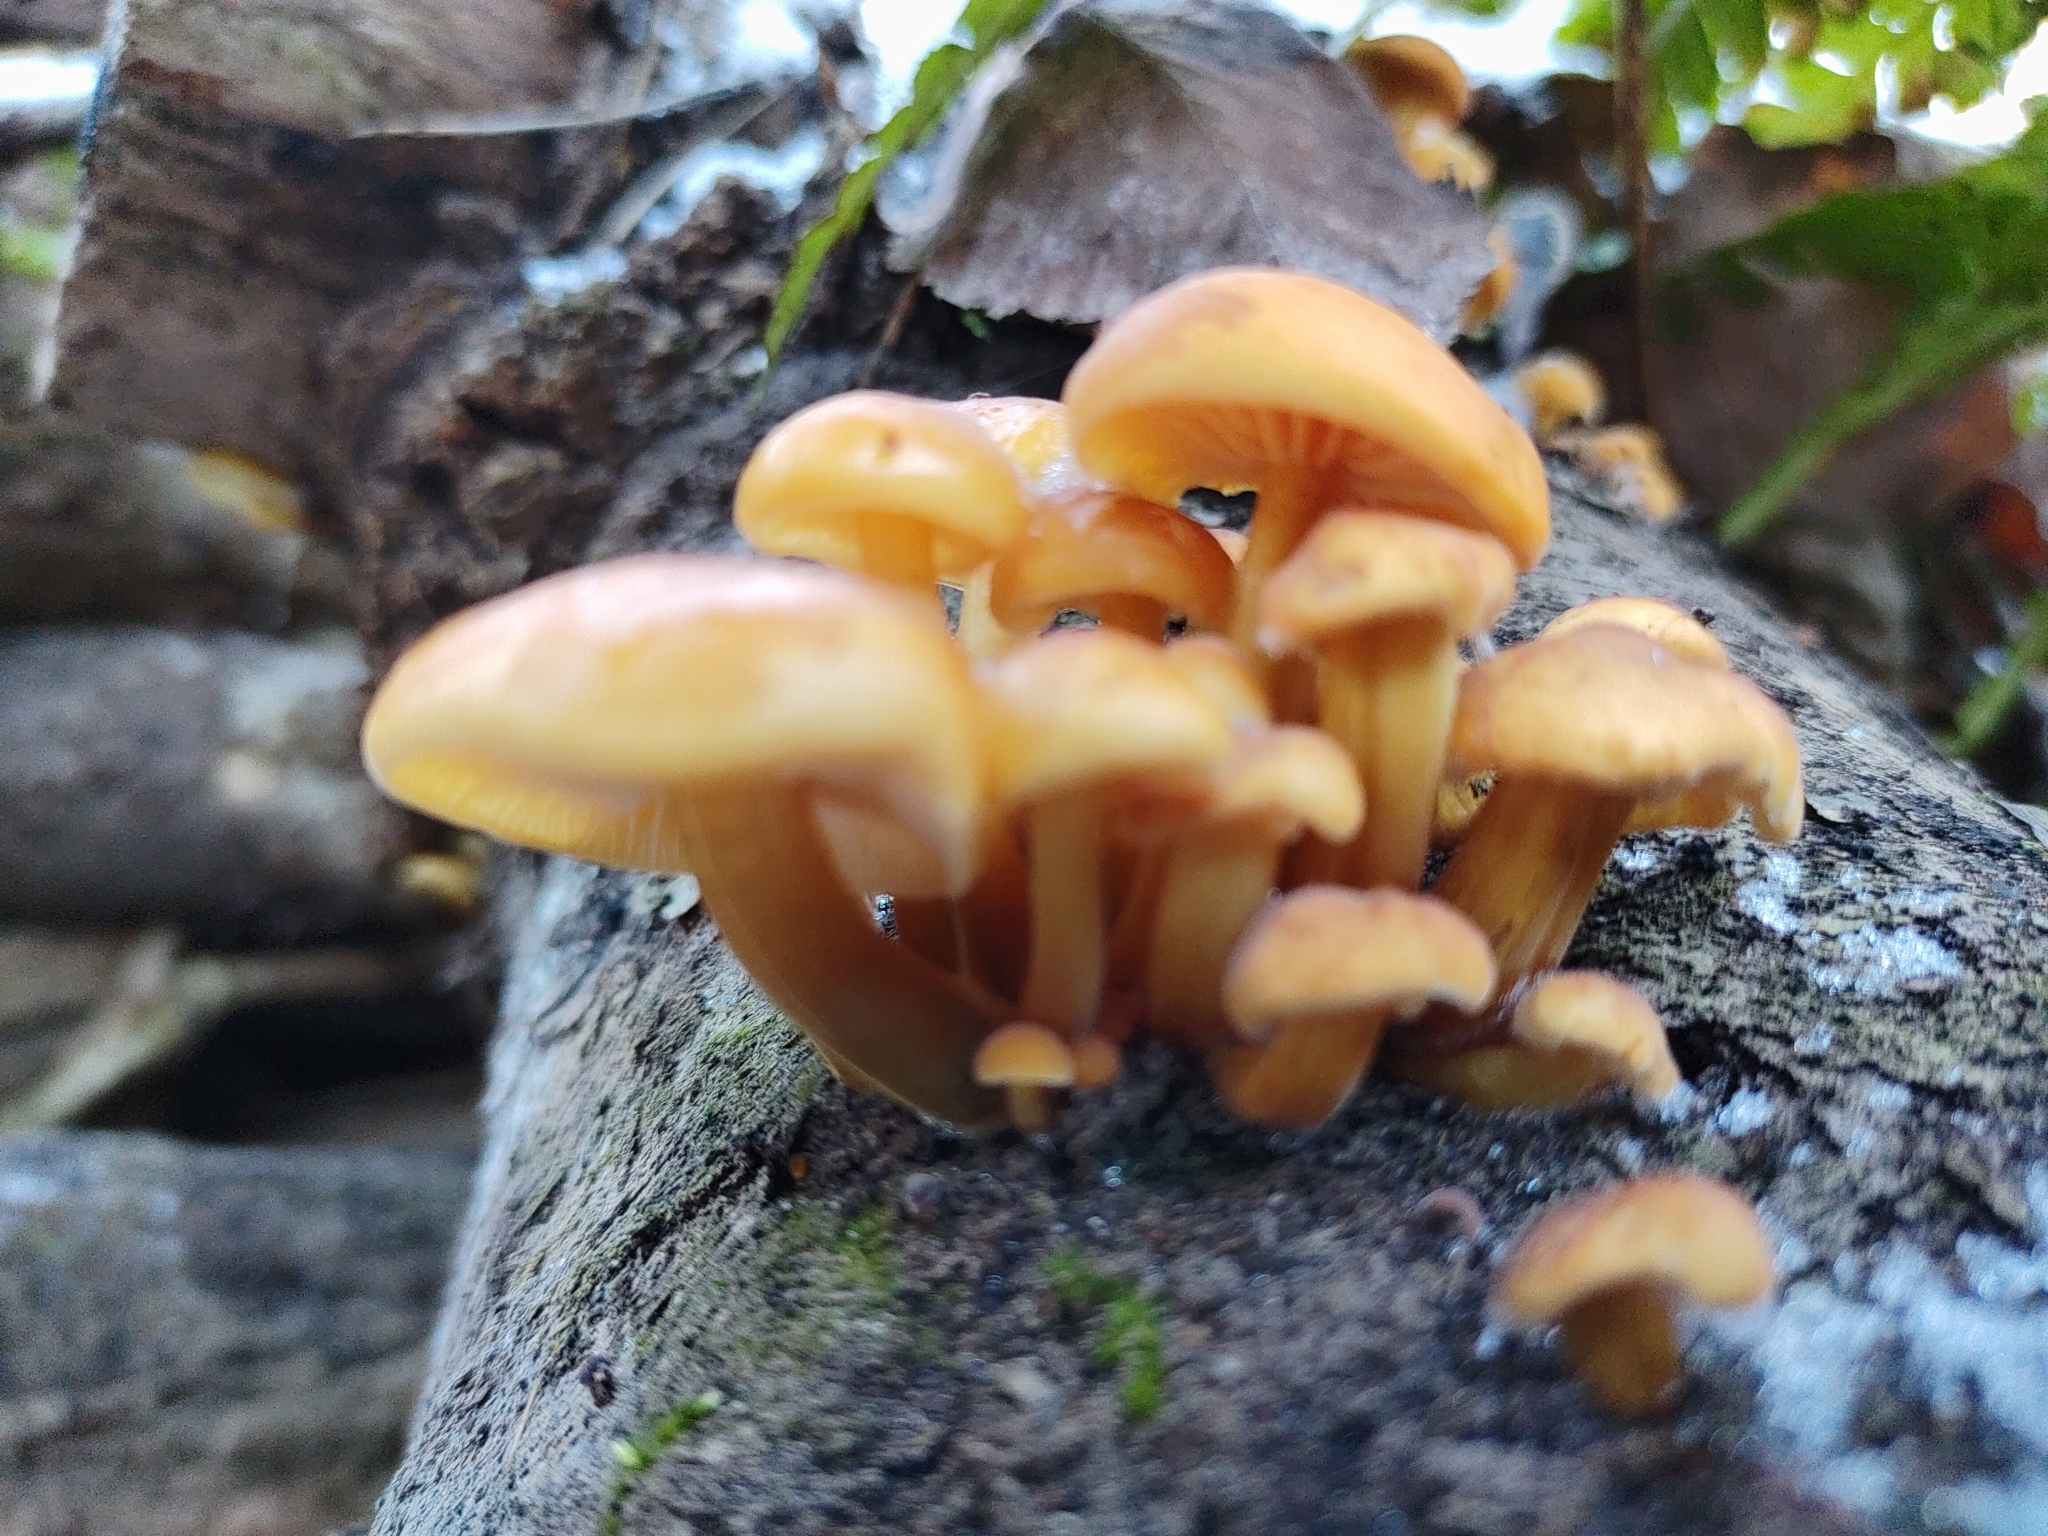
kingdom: Fungi
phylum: Basidiomycota
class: Agaricomycetes
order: Agaricales
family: Physalacriaceae
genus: Flammulina
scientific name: Flammulina
